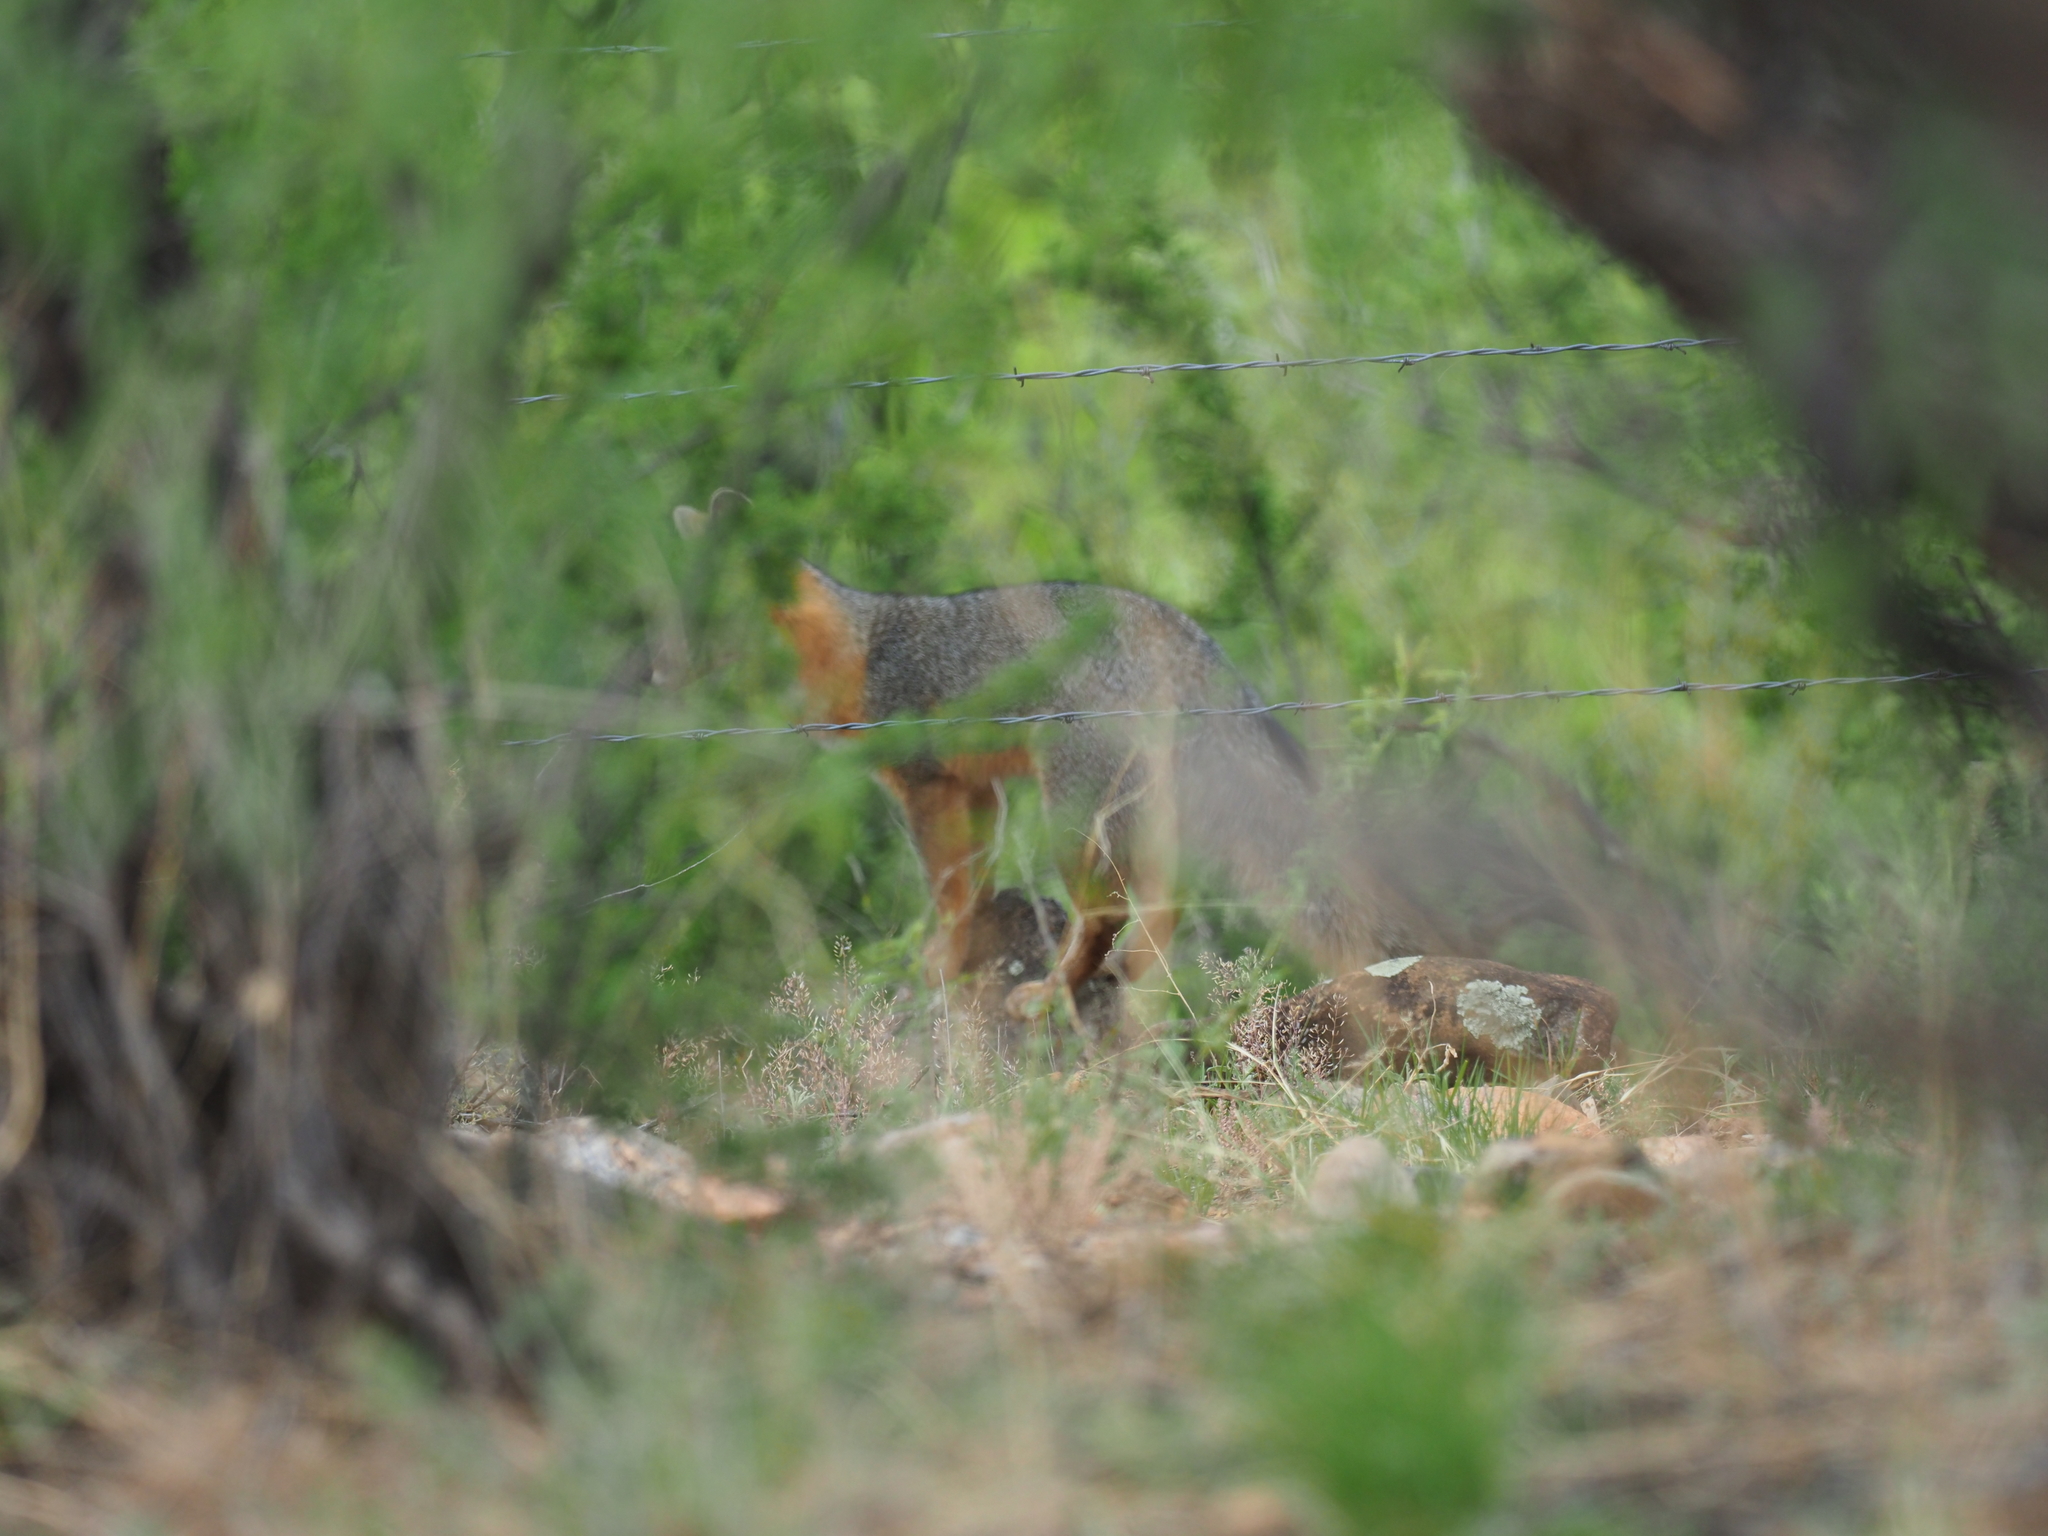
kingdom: Animalia
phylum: Chordata
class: Mammalia
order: Carnivora
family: Canidae
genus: Urocyon
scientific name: Urocyon cinereoargenteus
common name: Gray fox
